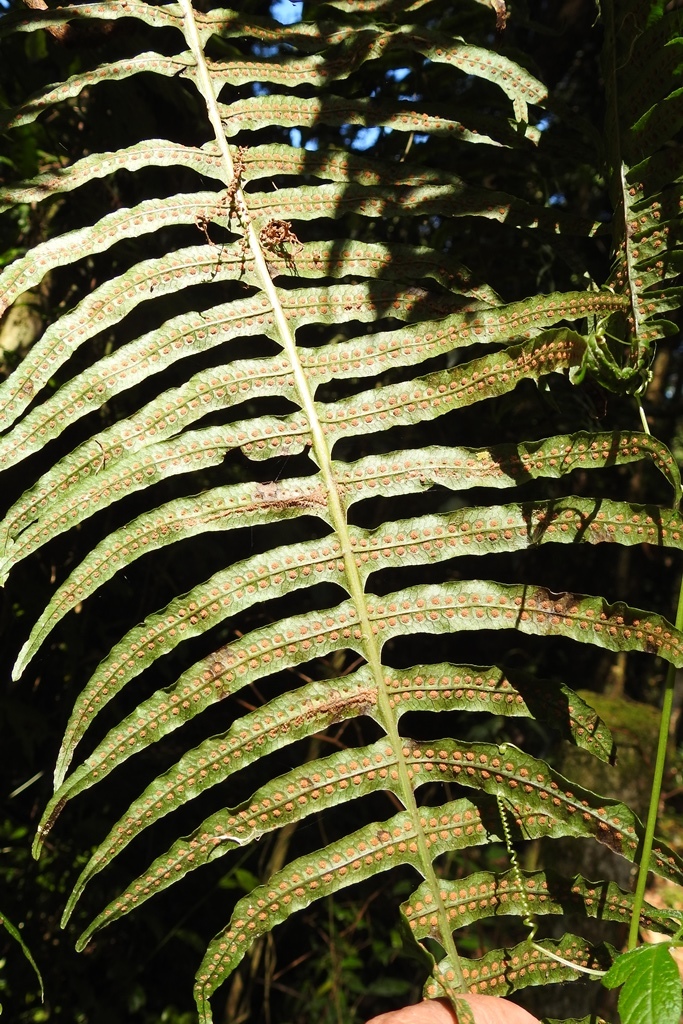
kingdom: Plantae
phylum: Tracheophyta
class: Polypodiopsida
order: Polypodiales
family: Polypodiaceae
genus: Serpocaulon
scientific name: Serpocaulon loriceum
